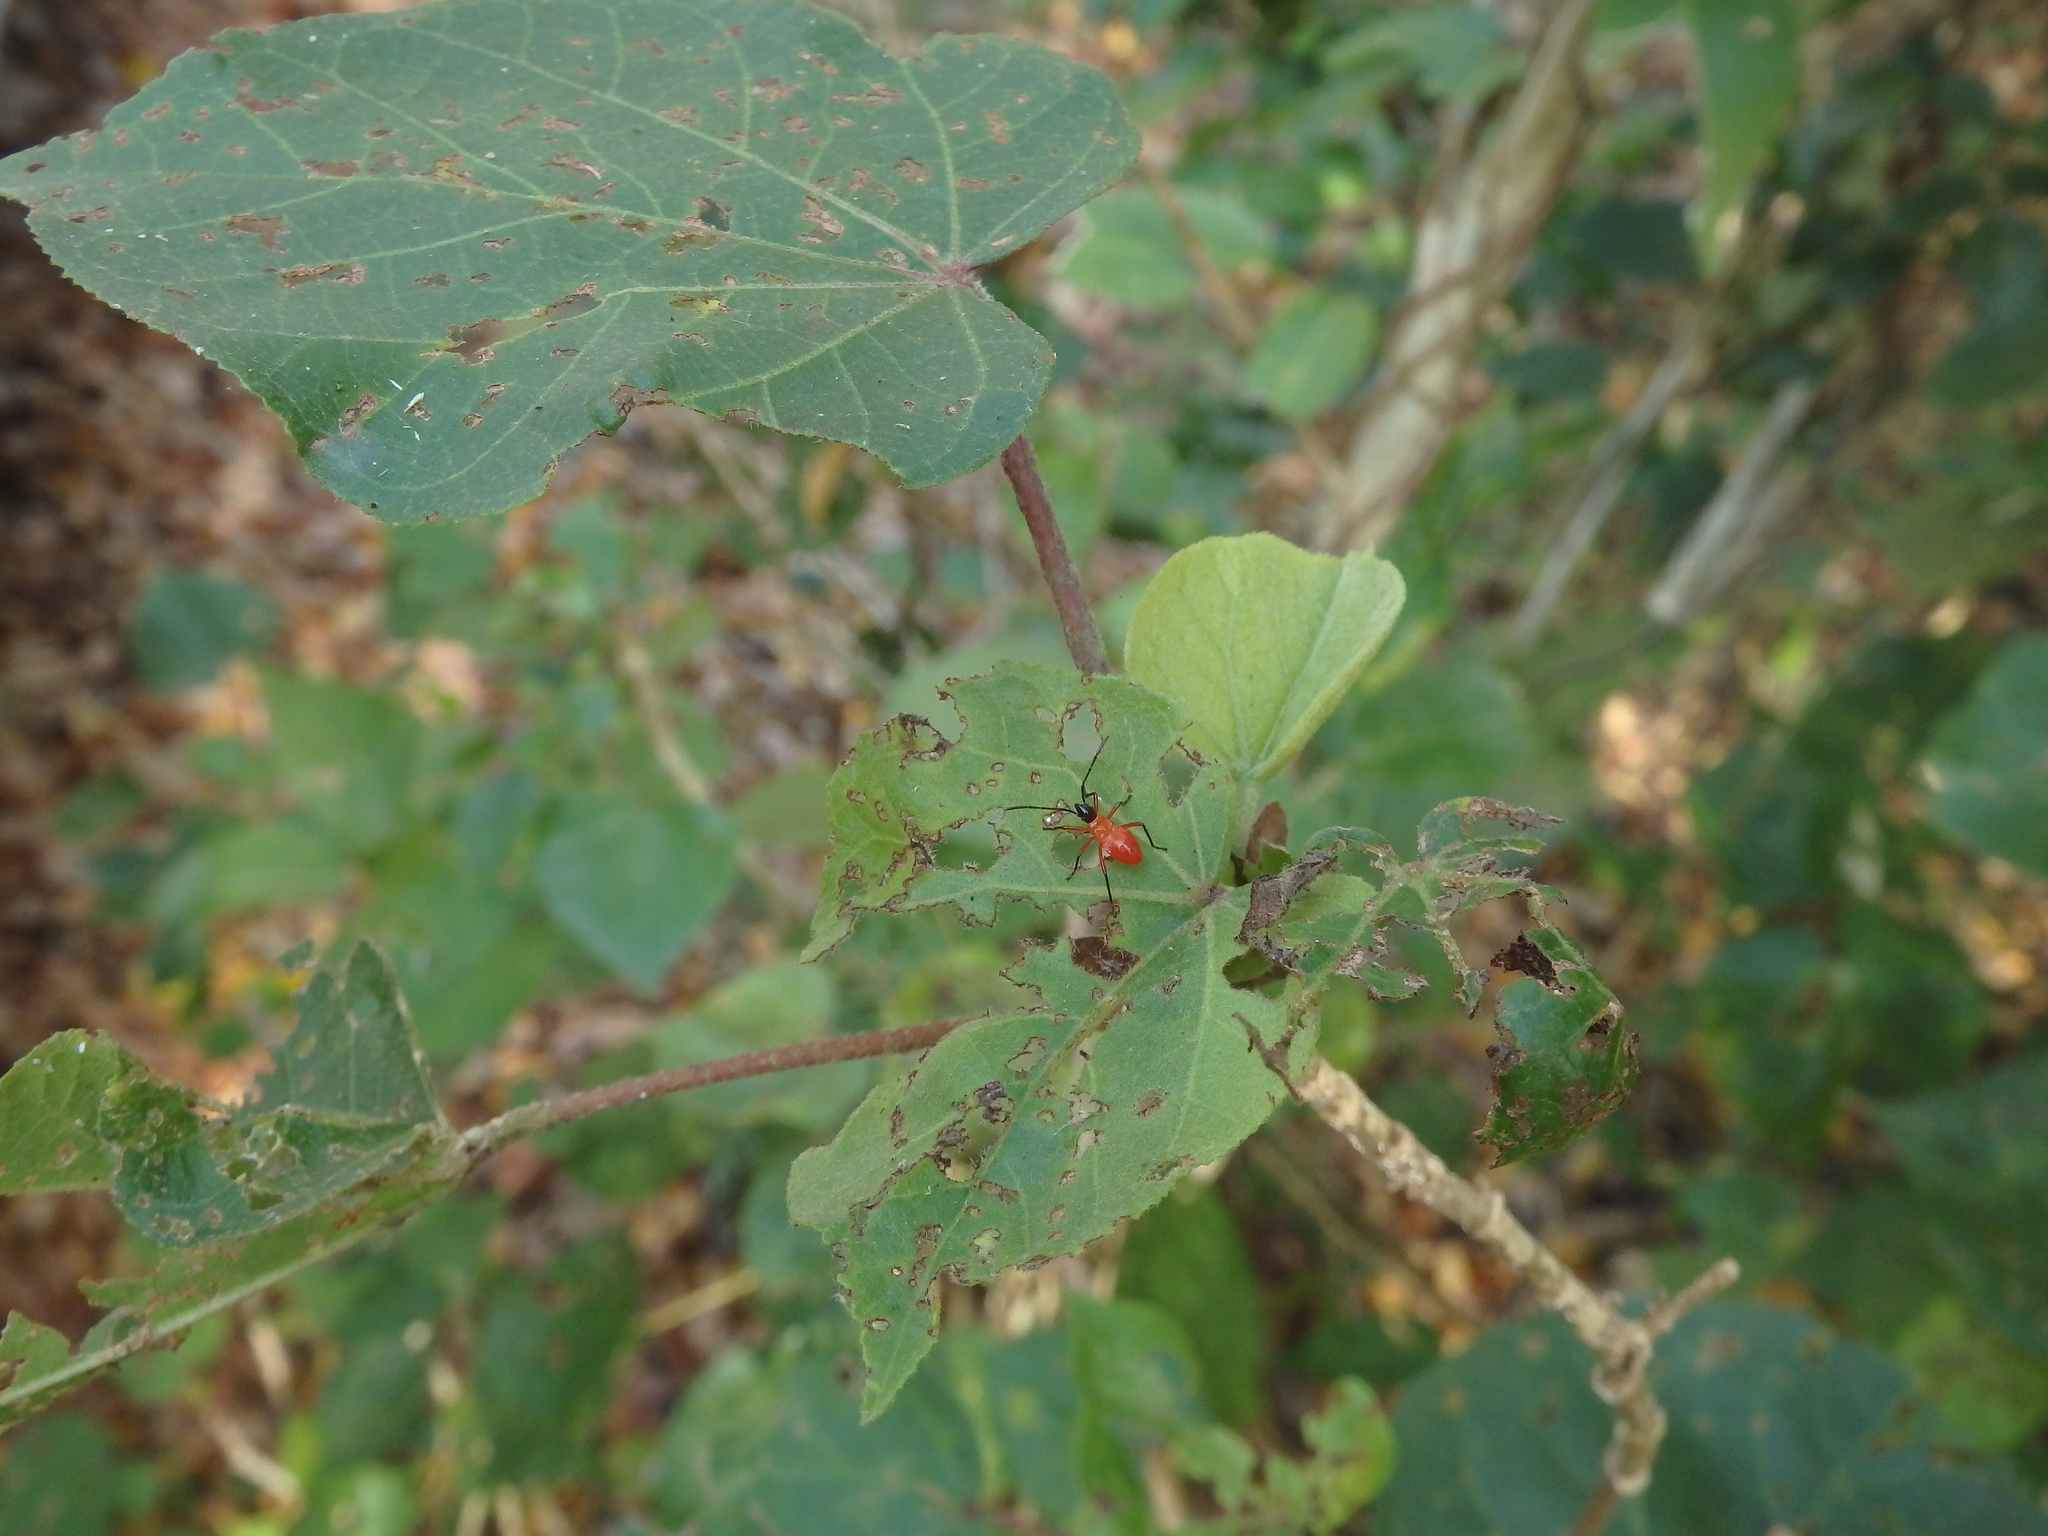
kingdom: Animalia
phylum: Arthropoda
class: Insecta
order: Hemiptera
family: Pyrrhocoridae
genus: Dysdercus
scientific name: Dysdercus decussatus
